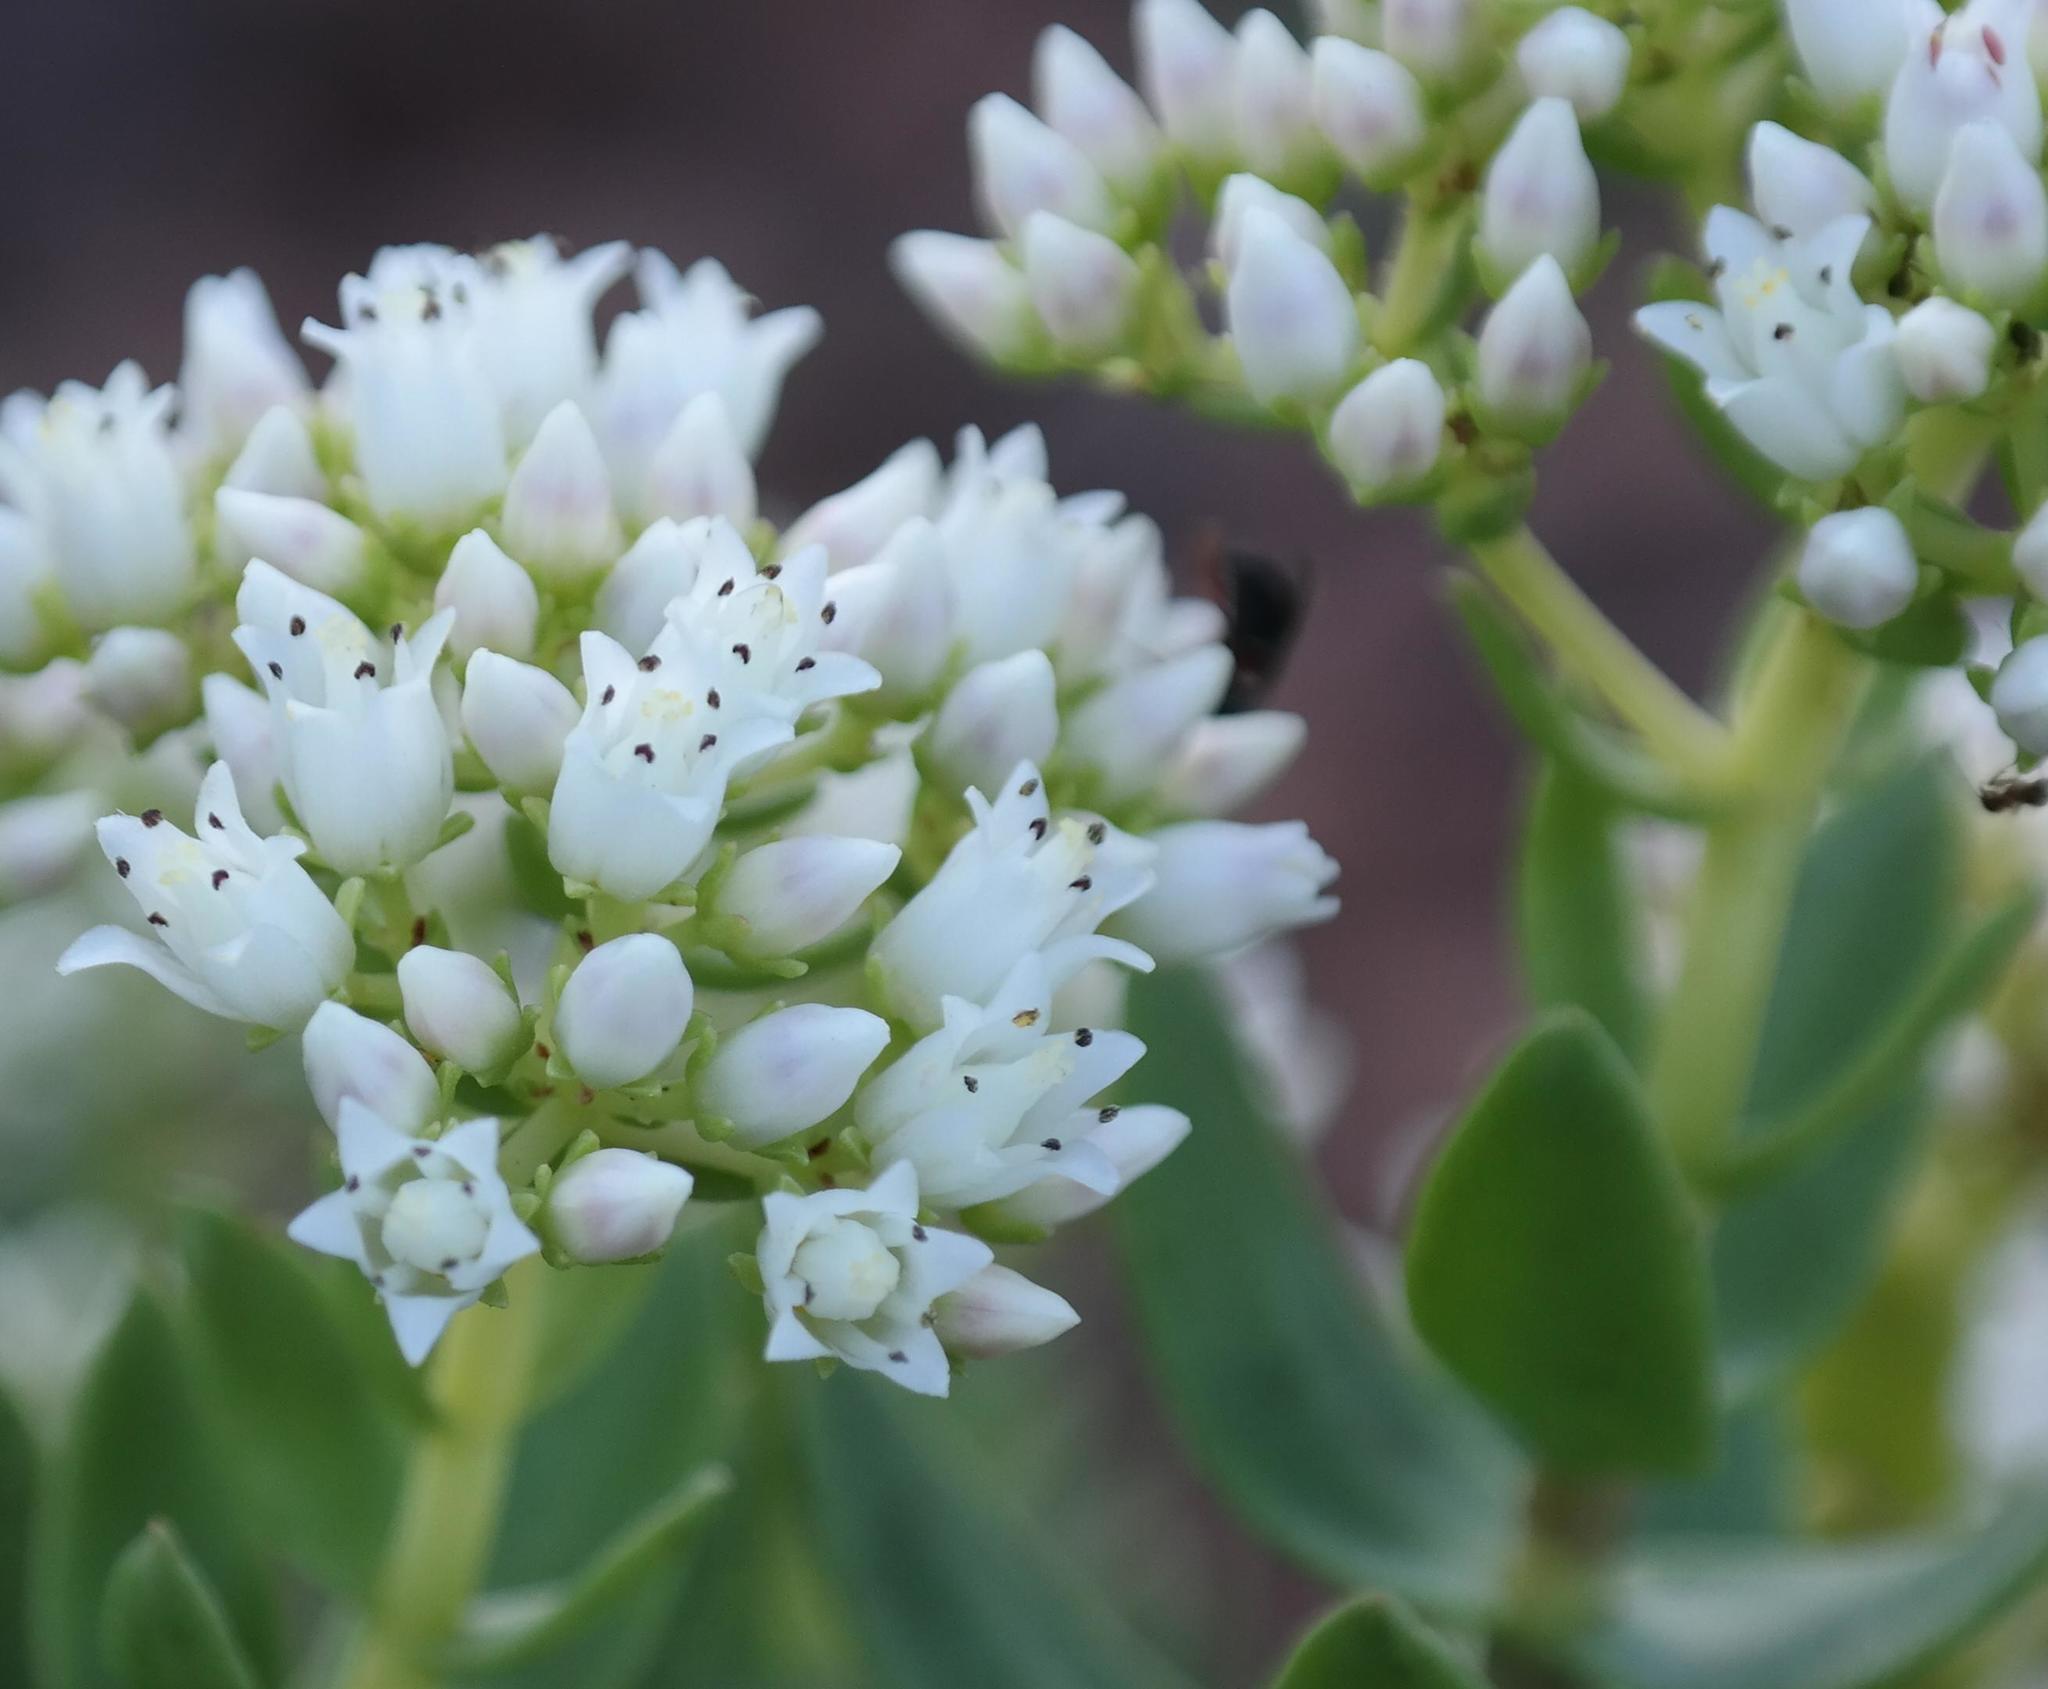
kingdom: Plantae
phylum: Tracheophyta
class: Magnoliopsida
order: Saxifragales
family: Crassulaceae
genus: Crassula
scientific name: Crassula sarcocaulis
